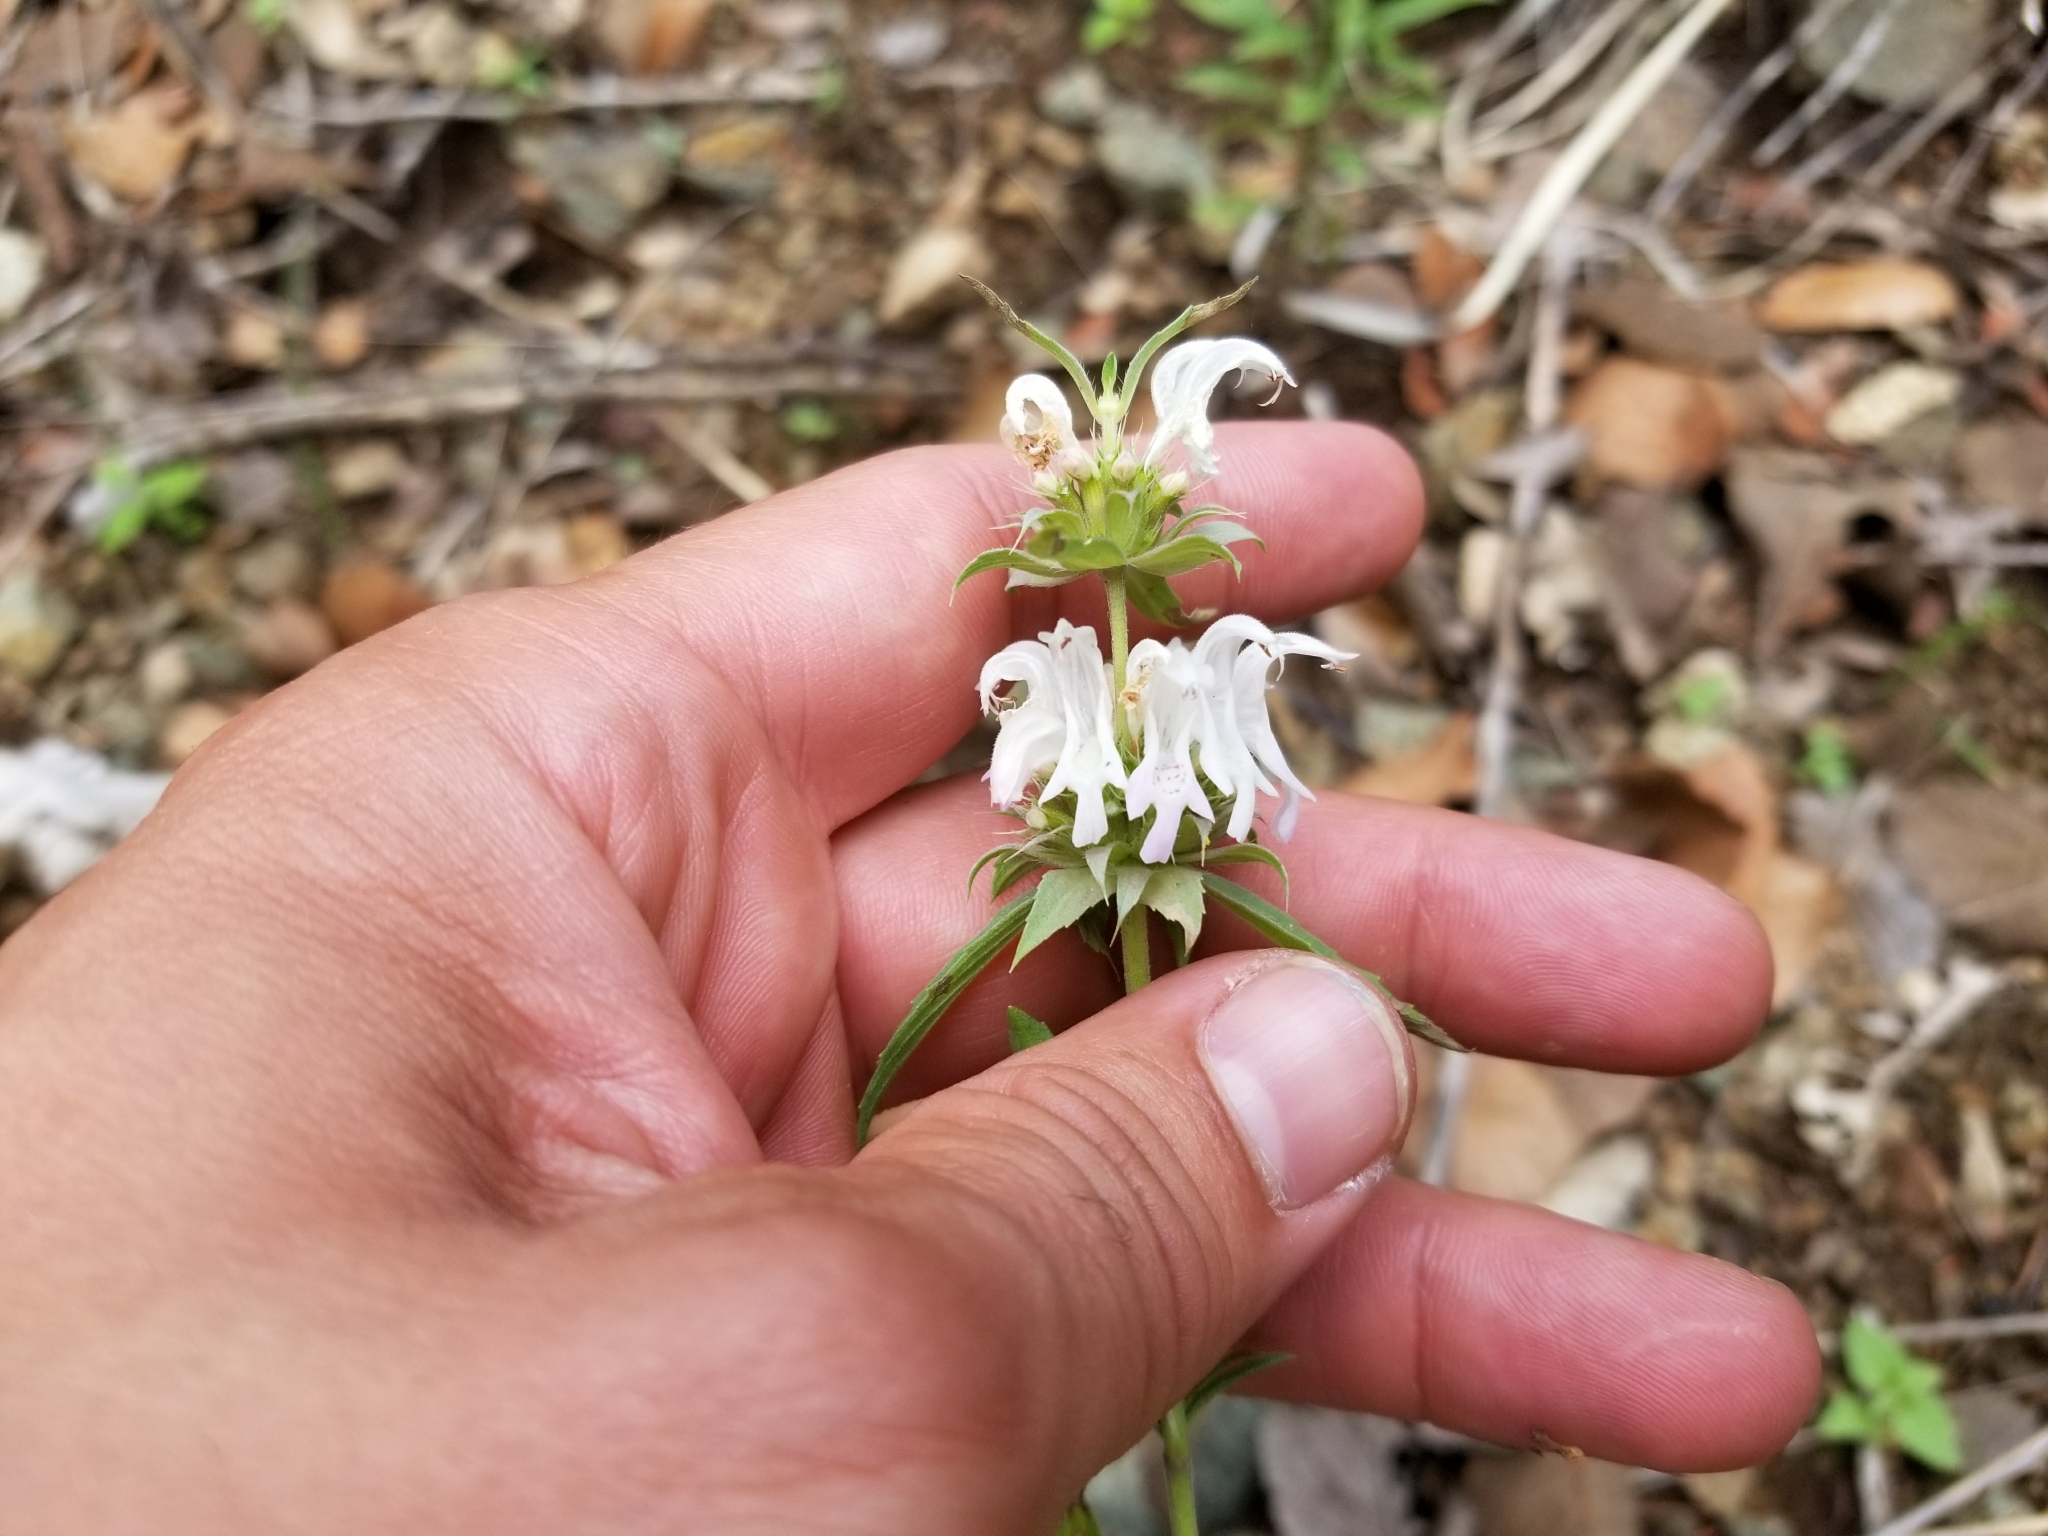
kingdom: Plantae
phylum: Tracheophyta
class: Magnoliopsida
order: Lamiales
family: Lamiaceae
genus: Monarda
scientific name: Monarda citriodora
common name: Lemon beebalm
